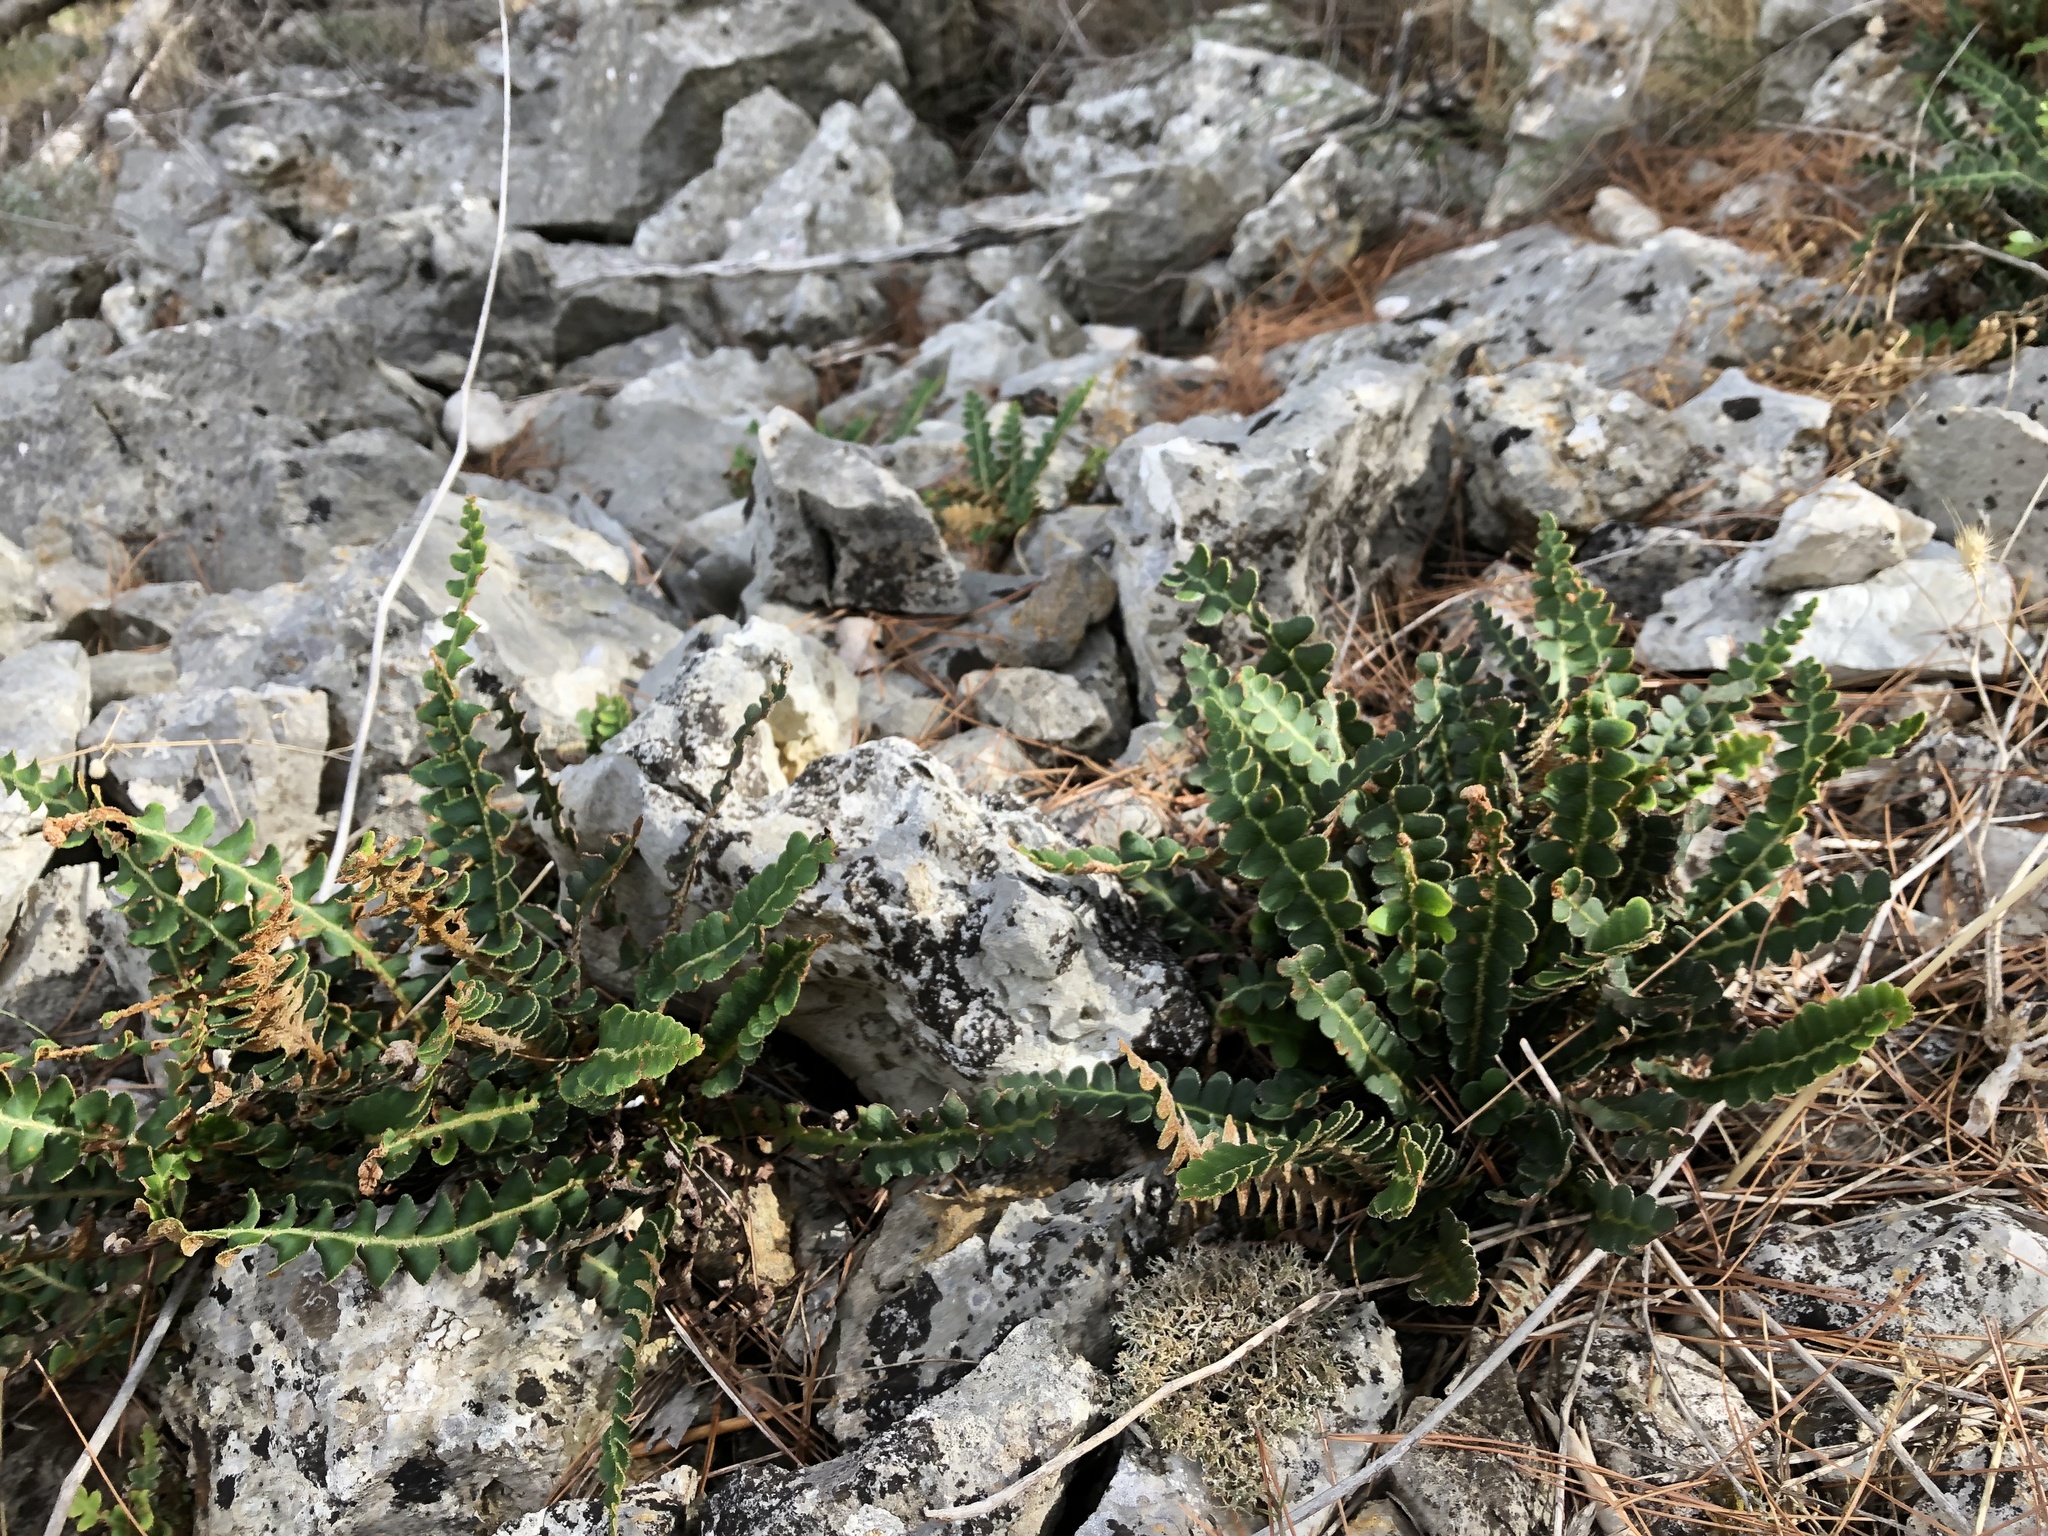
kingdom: Plantae
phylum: Tracheophyta
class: Polypodiopsida
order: Polypodiales
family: Aspleniaceae
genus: Asplenium
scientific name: Asplenium ceterach
